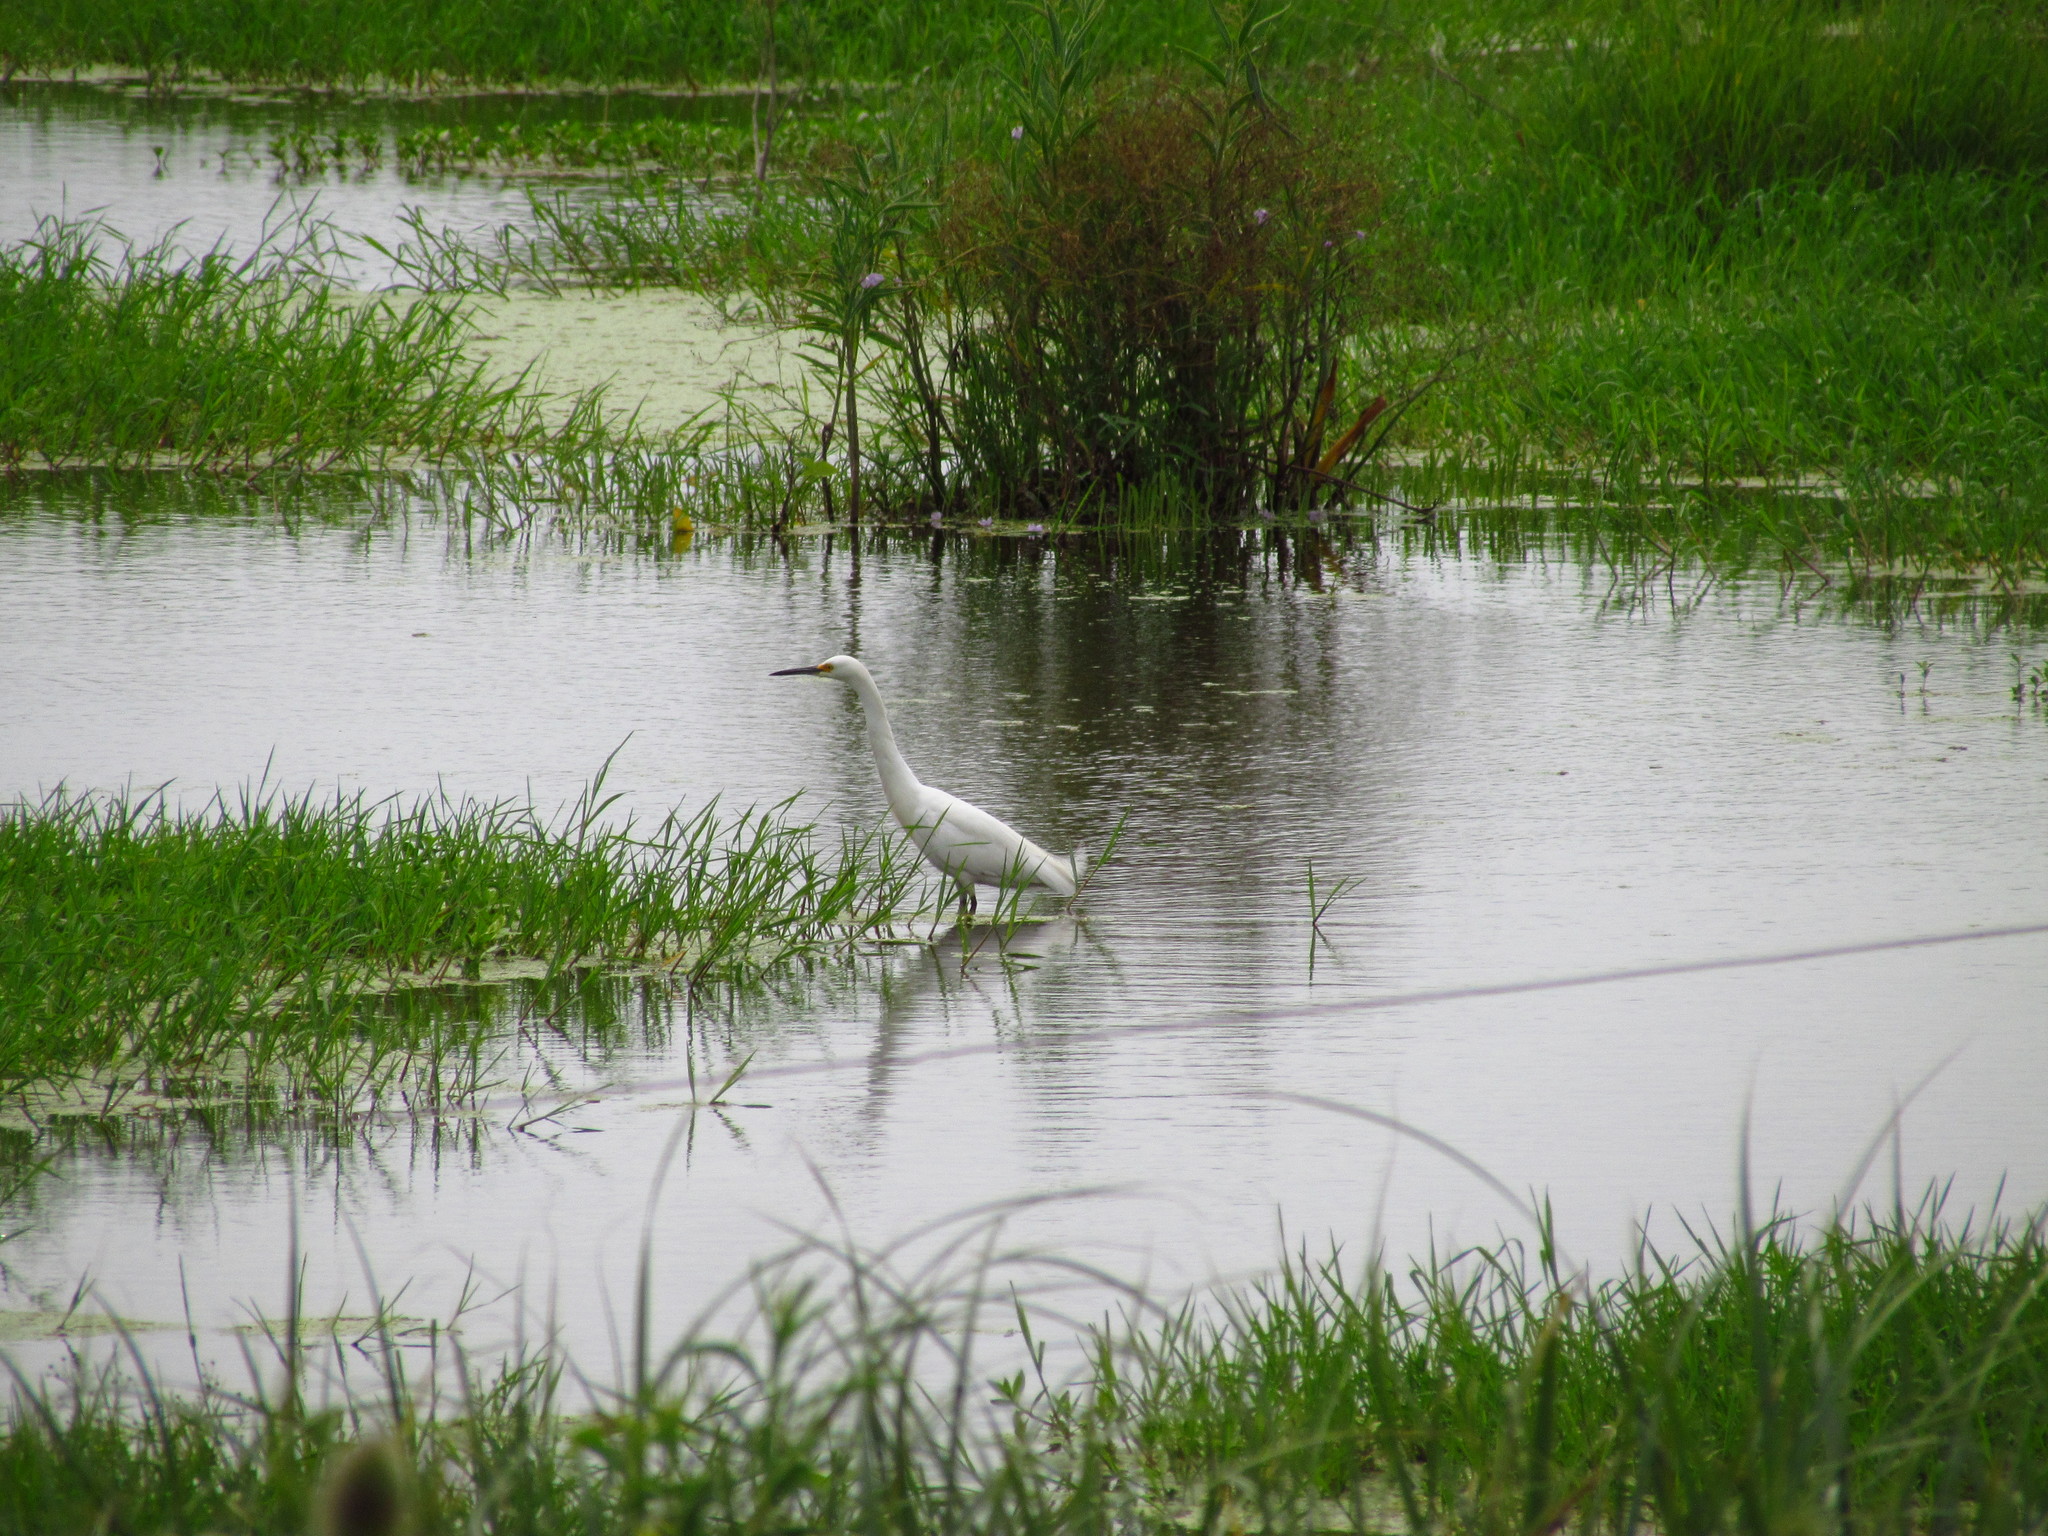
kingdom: Animalia
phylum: Chordata
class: Aves
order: Pelecaniformes
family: Ardeidae
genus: Egretta
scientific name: Egretta thula
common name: Snowy egret
